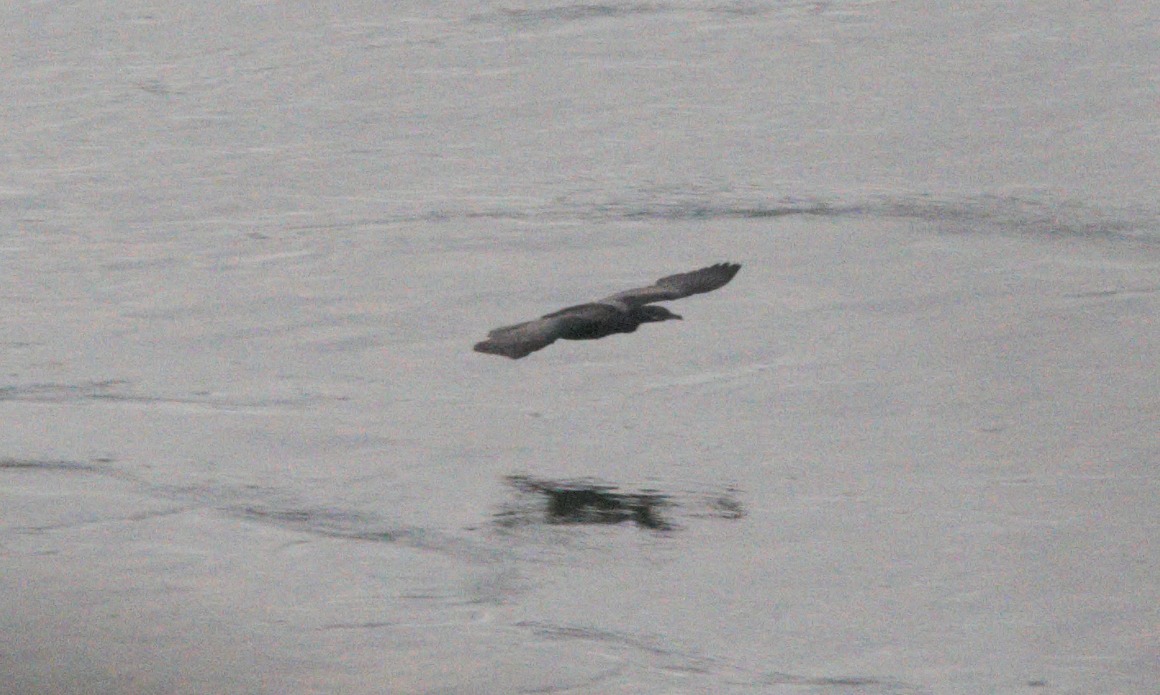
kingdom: Animalia
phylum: Chordata
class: Aves
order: Suliformes
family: Phalacrocoracidae
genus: Phalacrocorax
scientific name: Phalacrocorax brasilianus
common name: Neotropic cormorant
